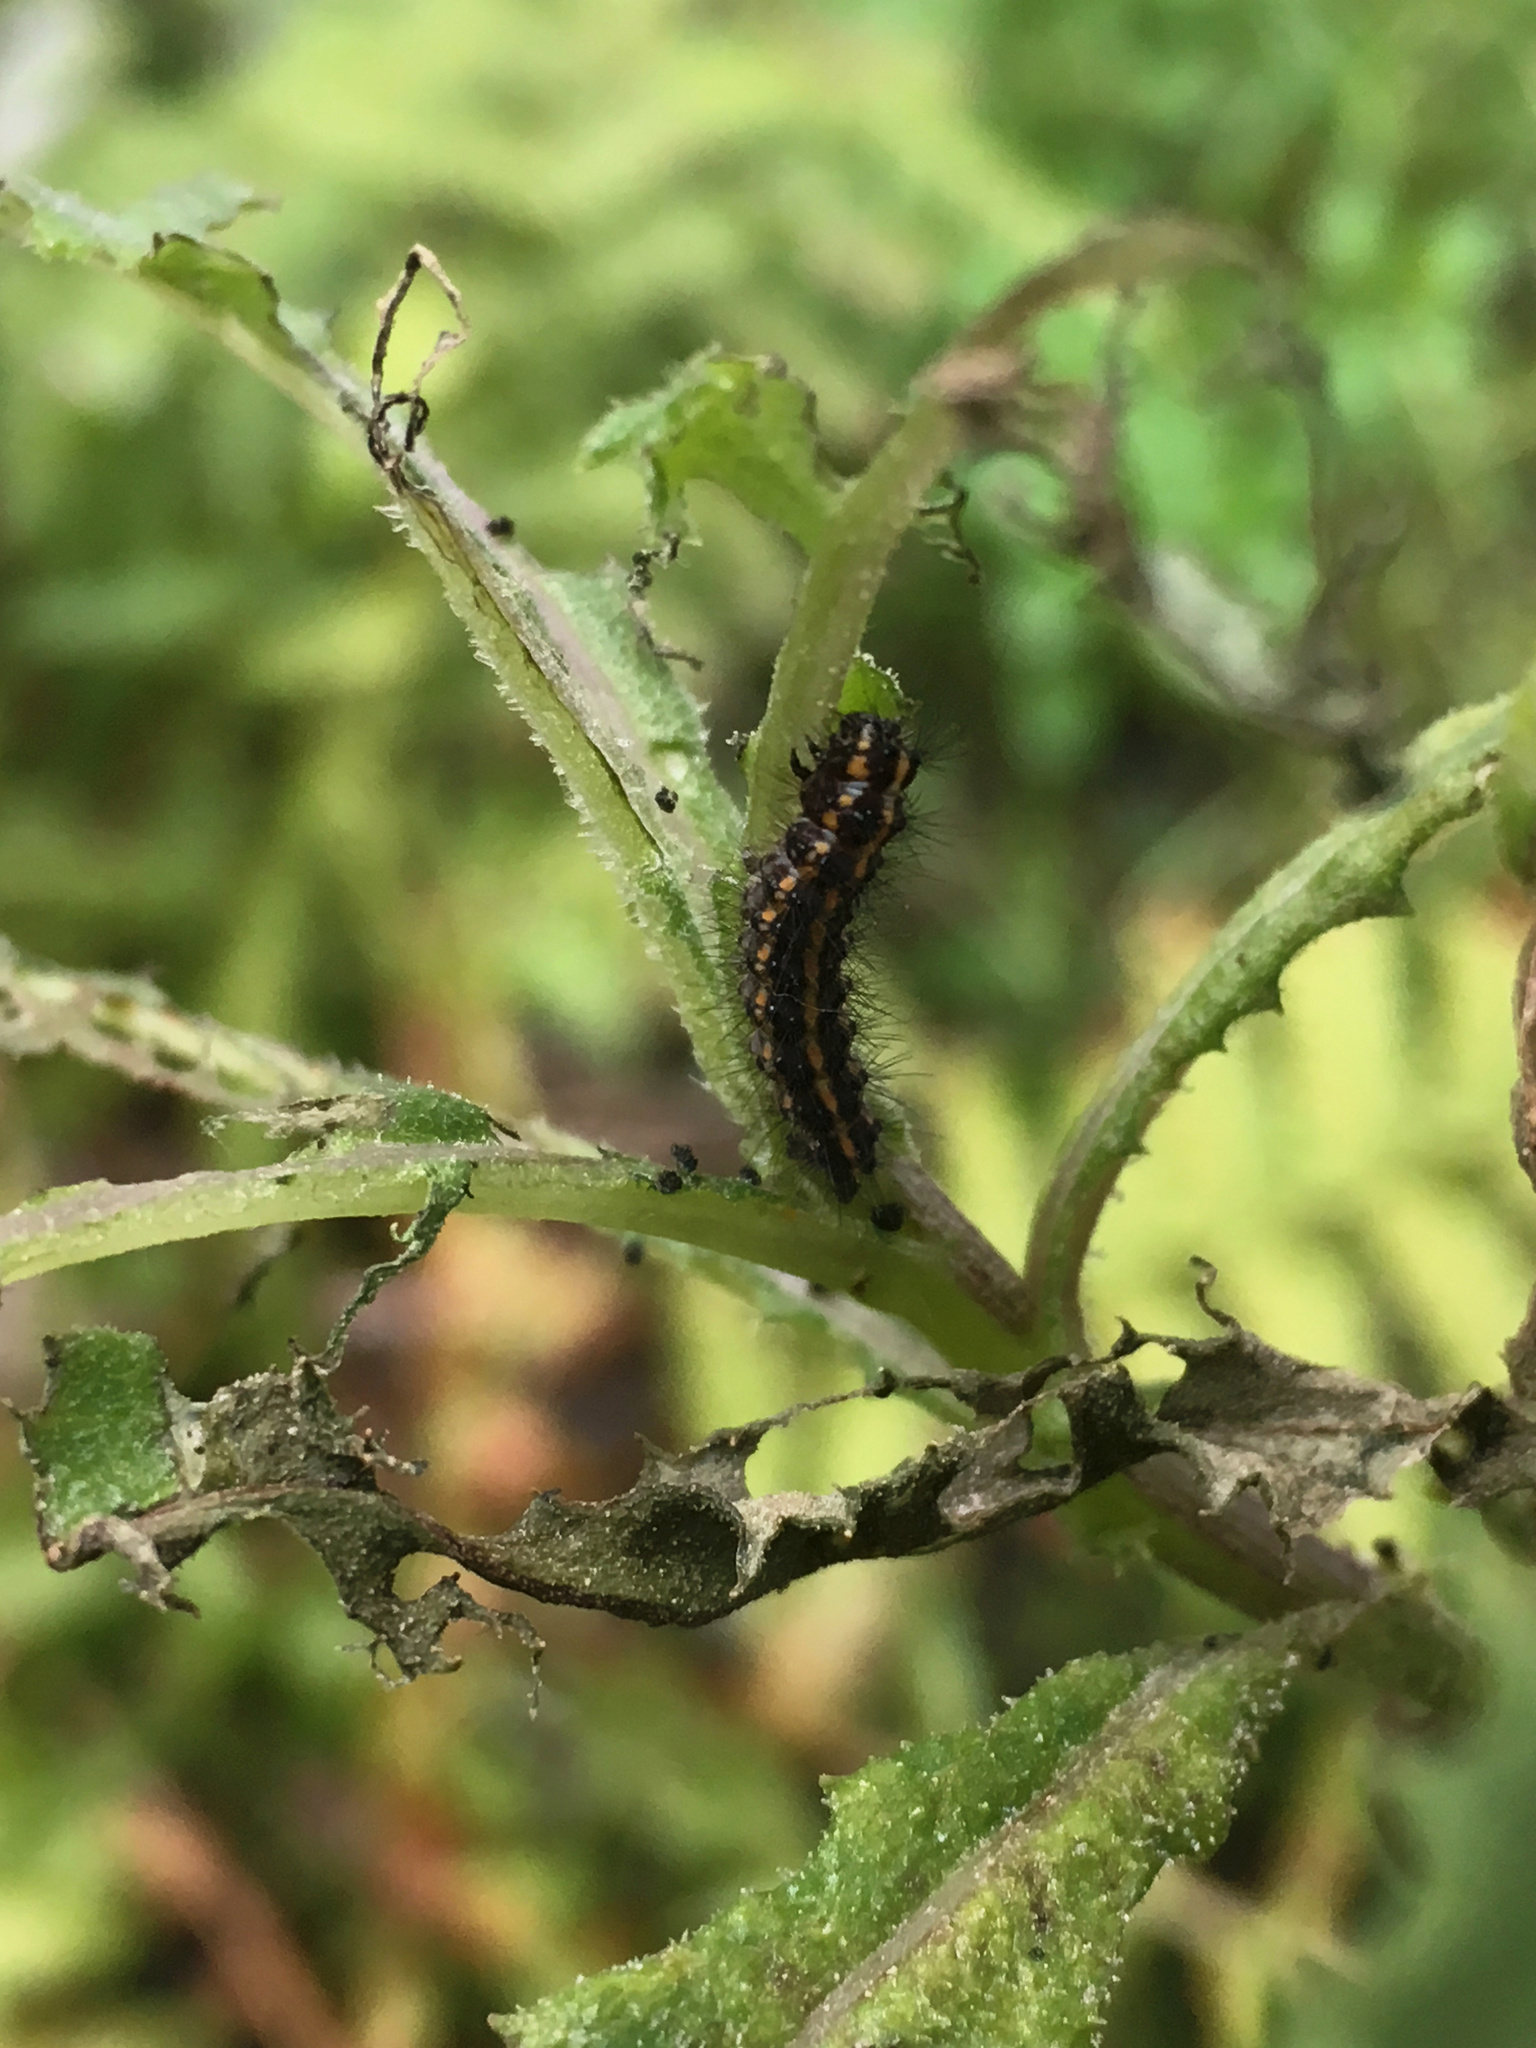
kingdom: Animalia
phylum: Arthropoda
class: Insecta
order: Lepidoptera
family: Erebidae
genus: Nyctemera
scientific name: Nyctemera annulatum
